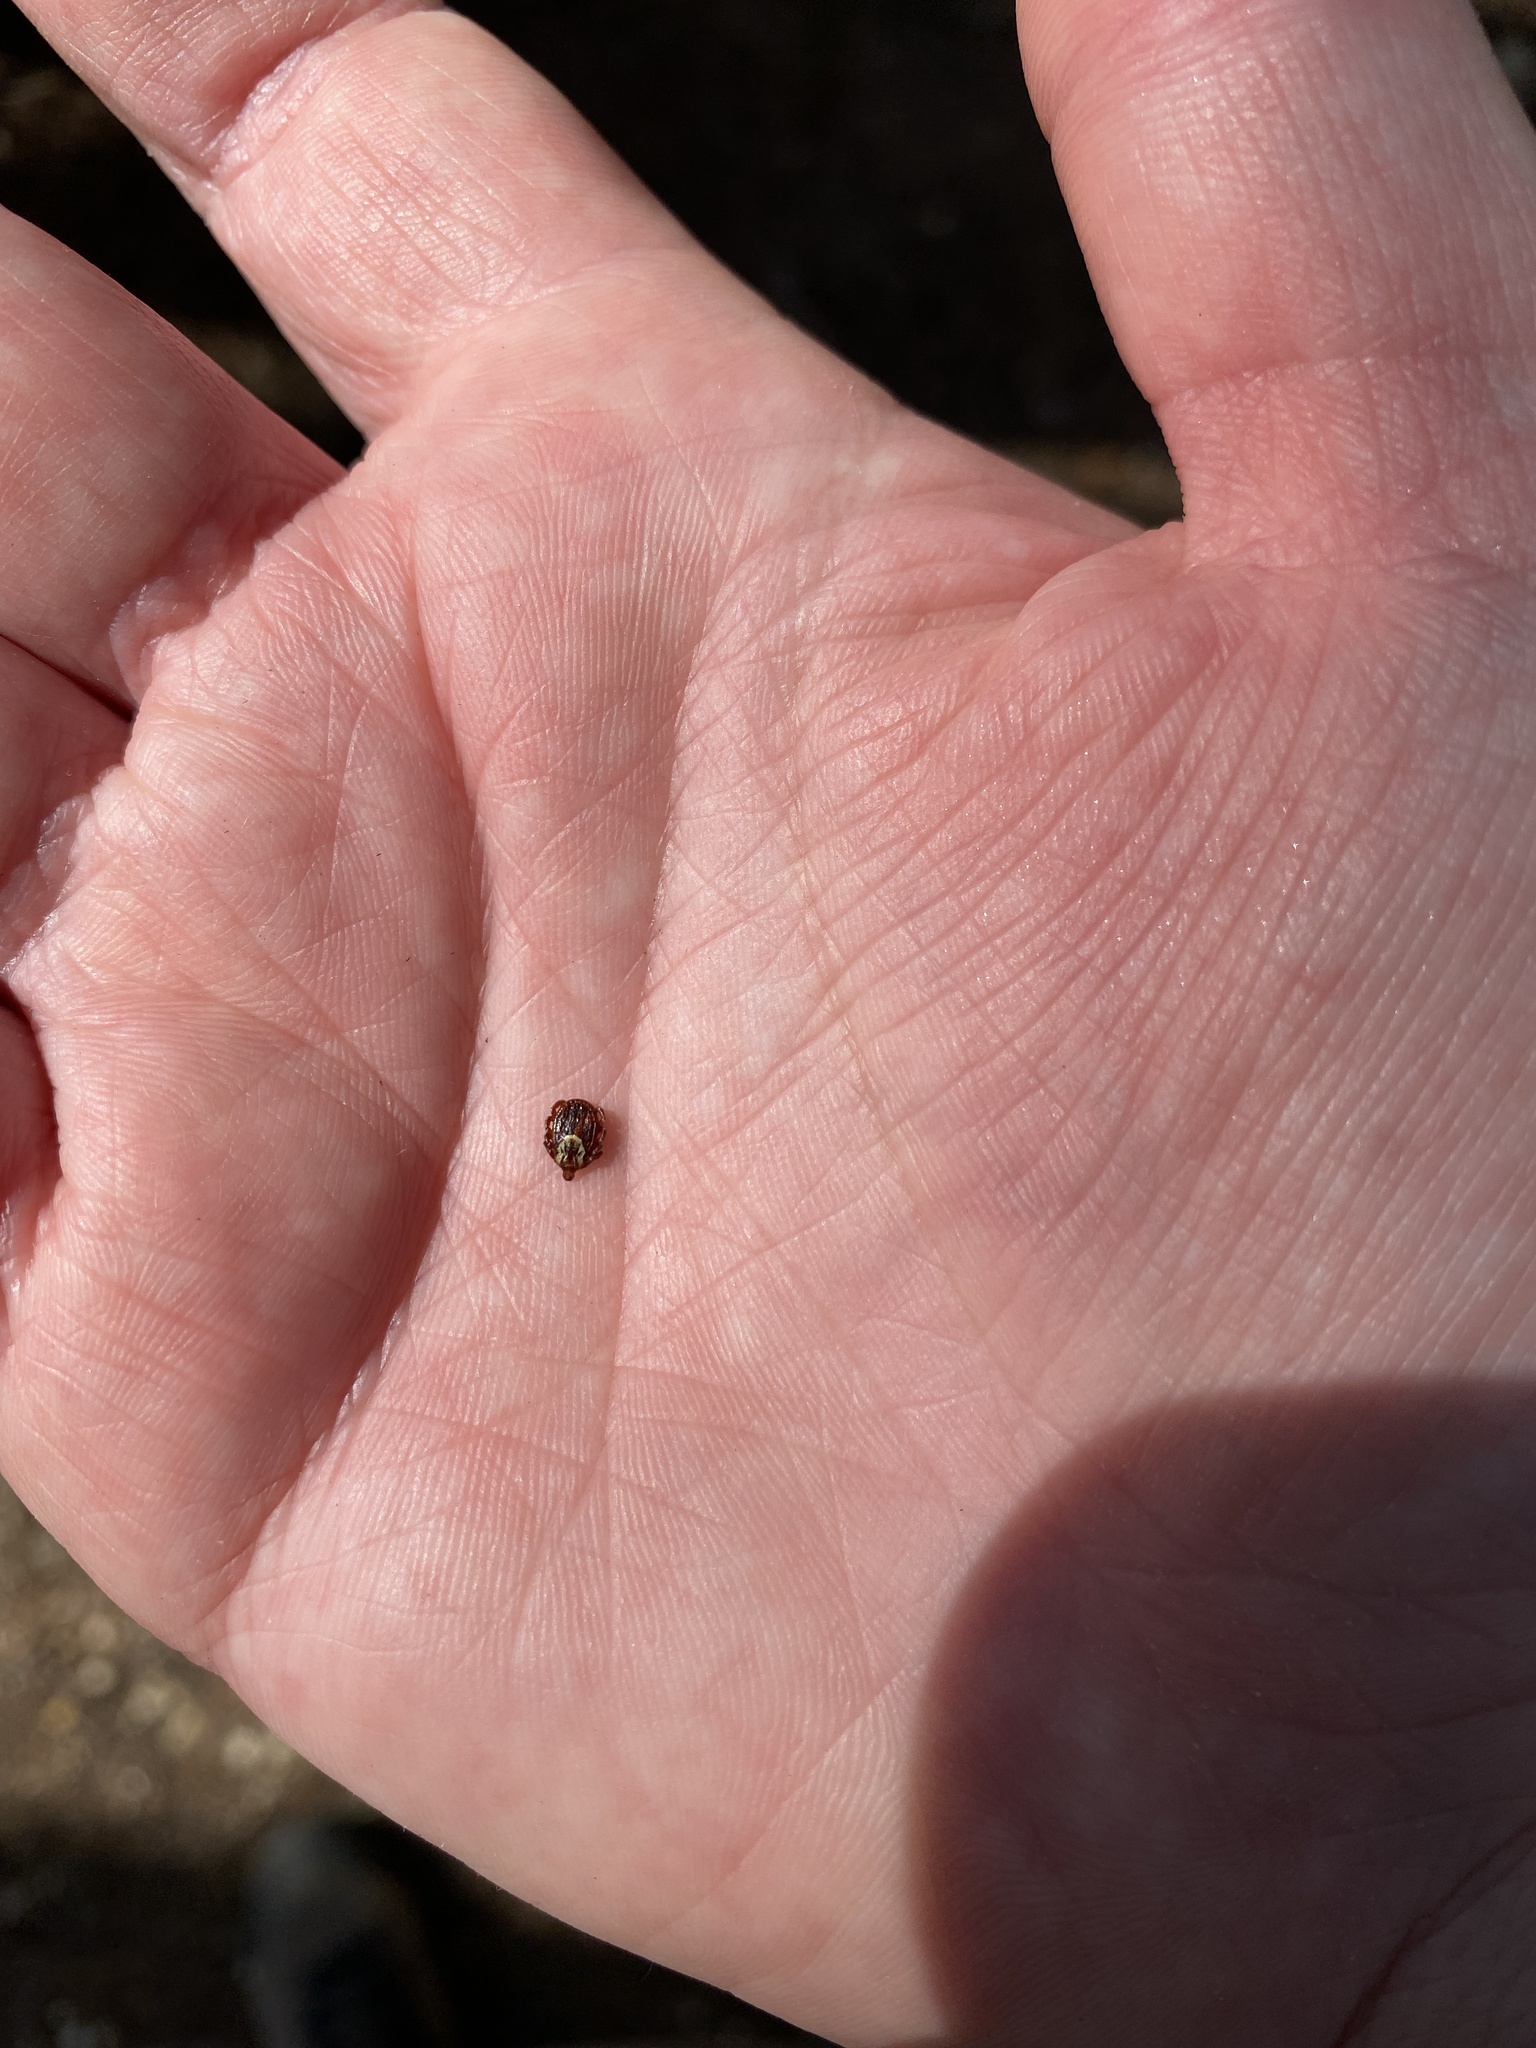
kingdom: Animalia
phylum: Arthropoda
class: Arachnida
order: Ixodida
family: Ixodidae
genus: Dermacentor
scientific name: Dermacentor variabilis
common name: American dog tick
